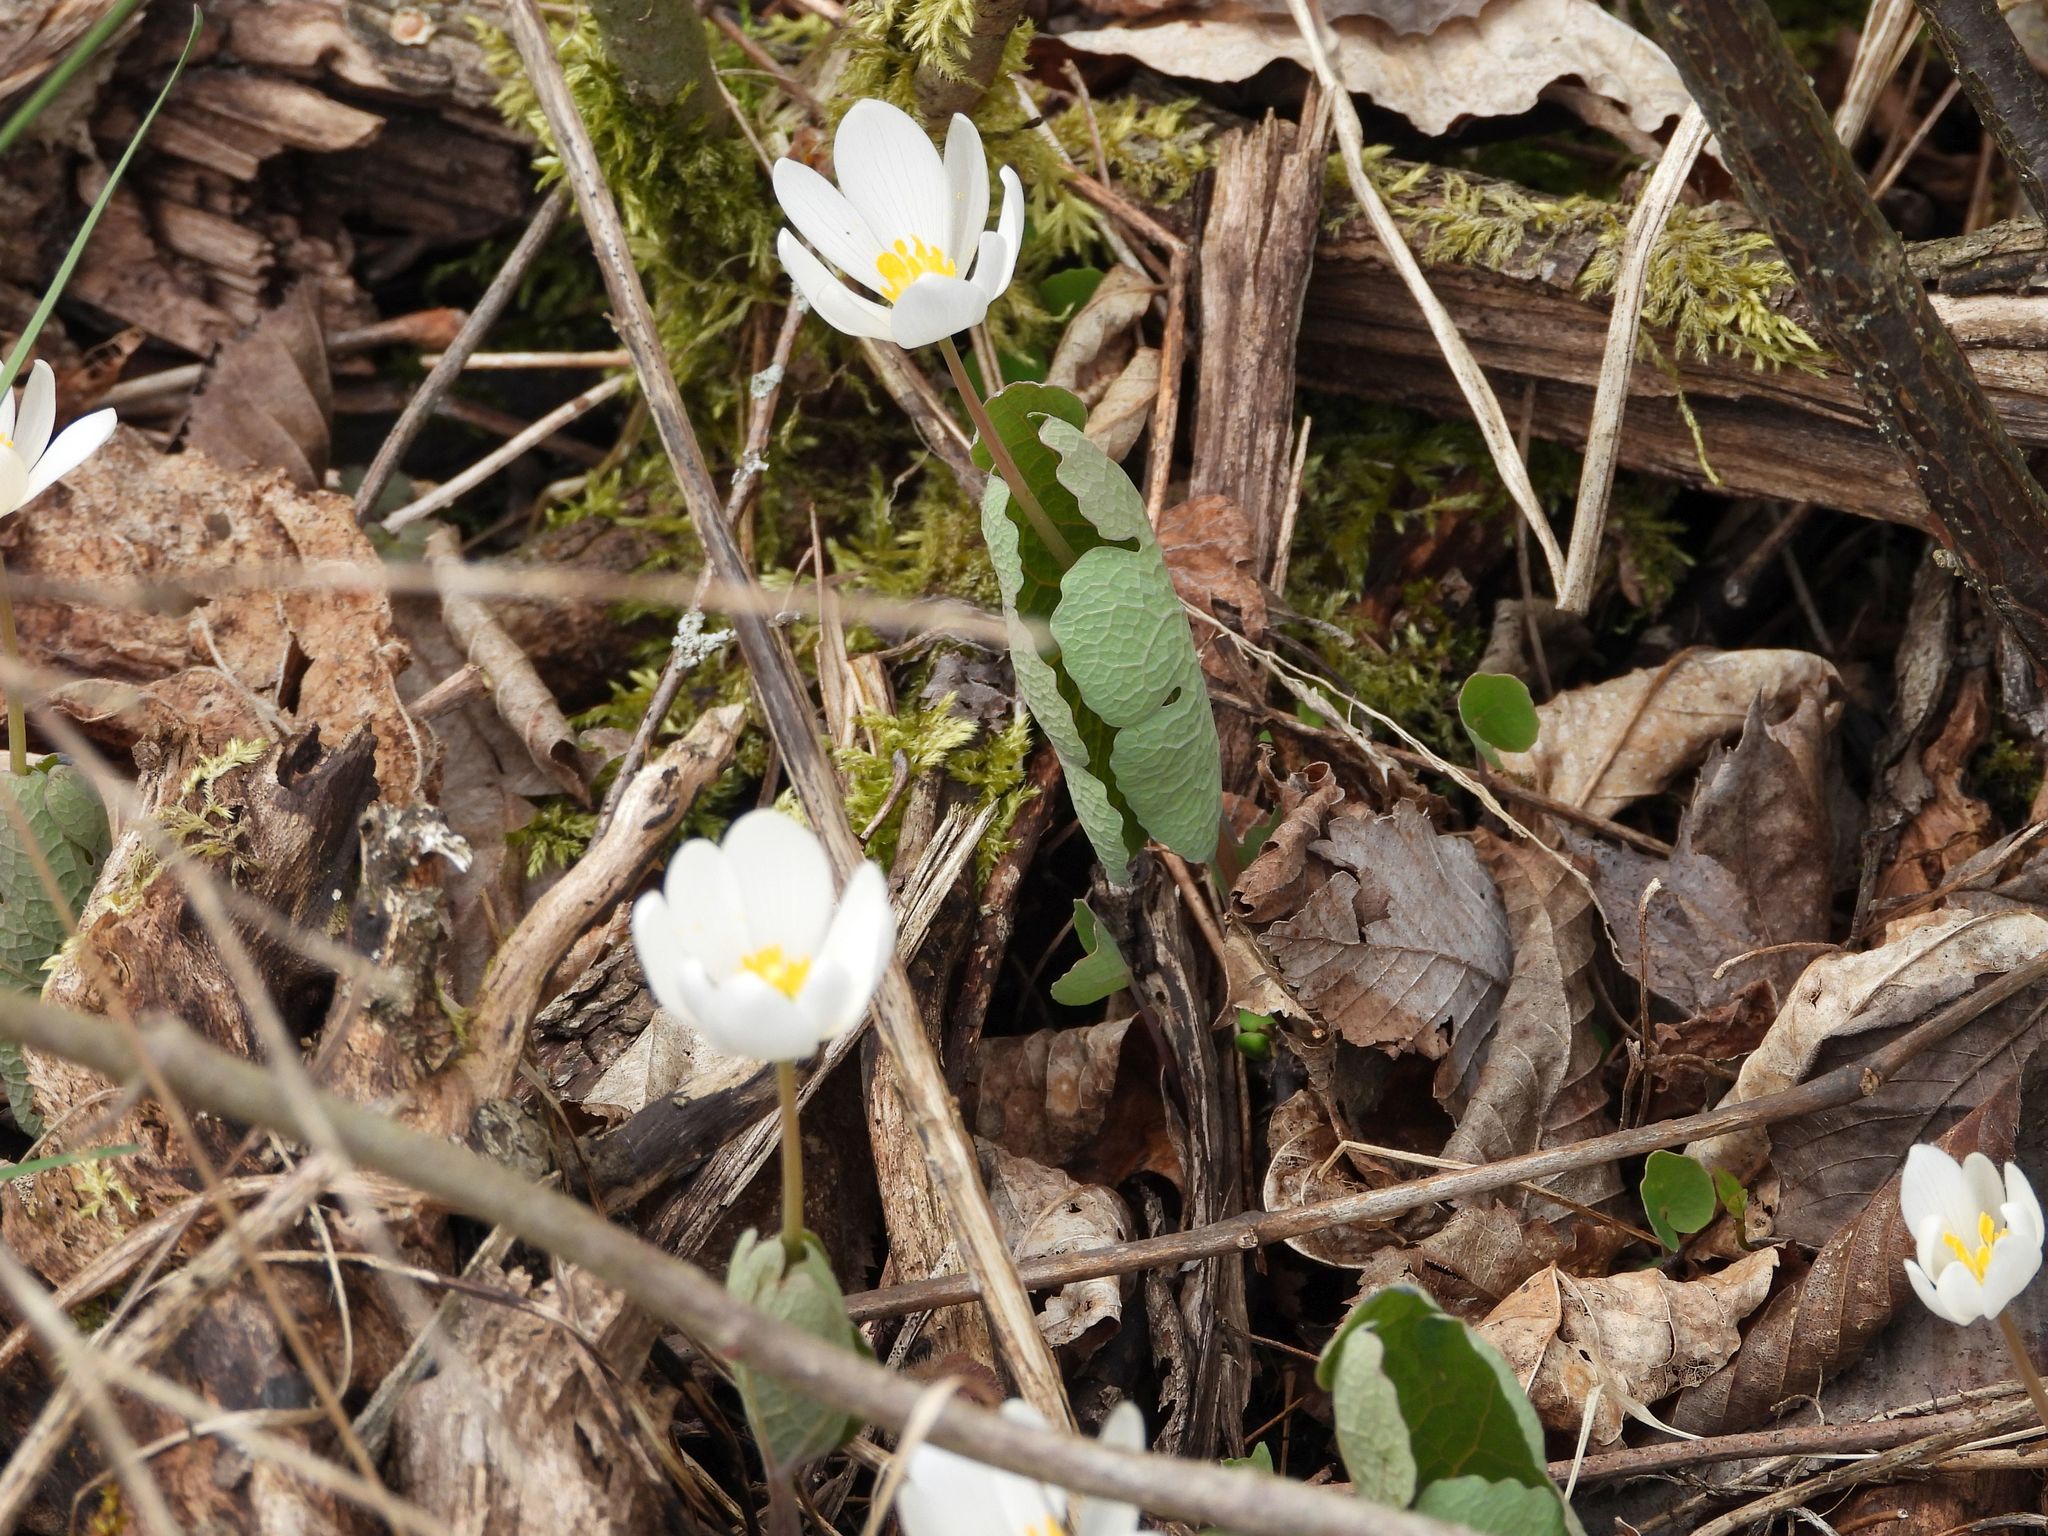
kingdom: Plantae
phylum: Tracheophyta
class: Magnoliopsida
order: Ranunculales
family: Papaveraceae
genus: Sanguinaria
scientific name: Sanguinaria canadensis
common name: Bloodroot
